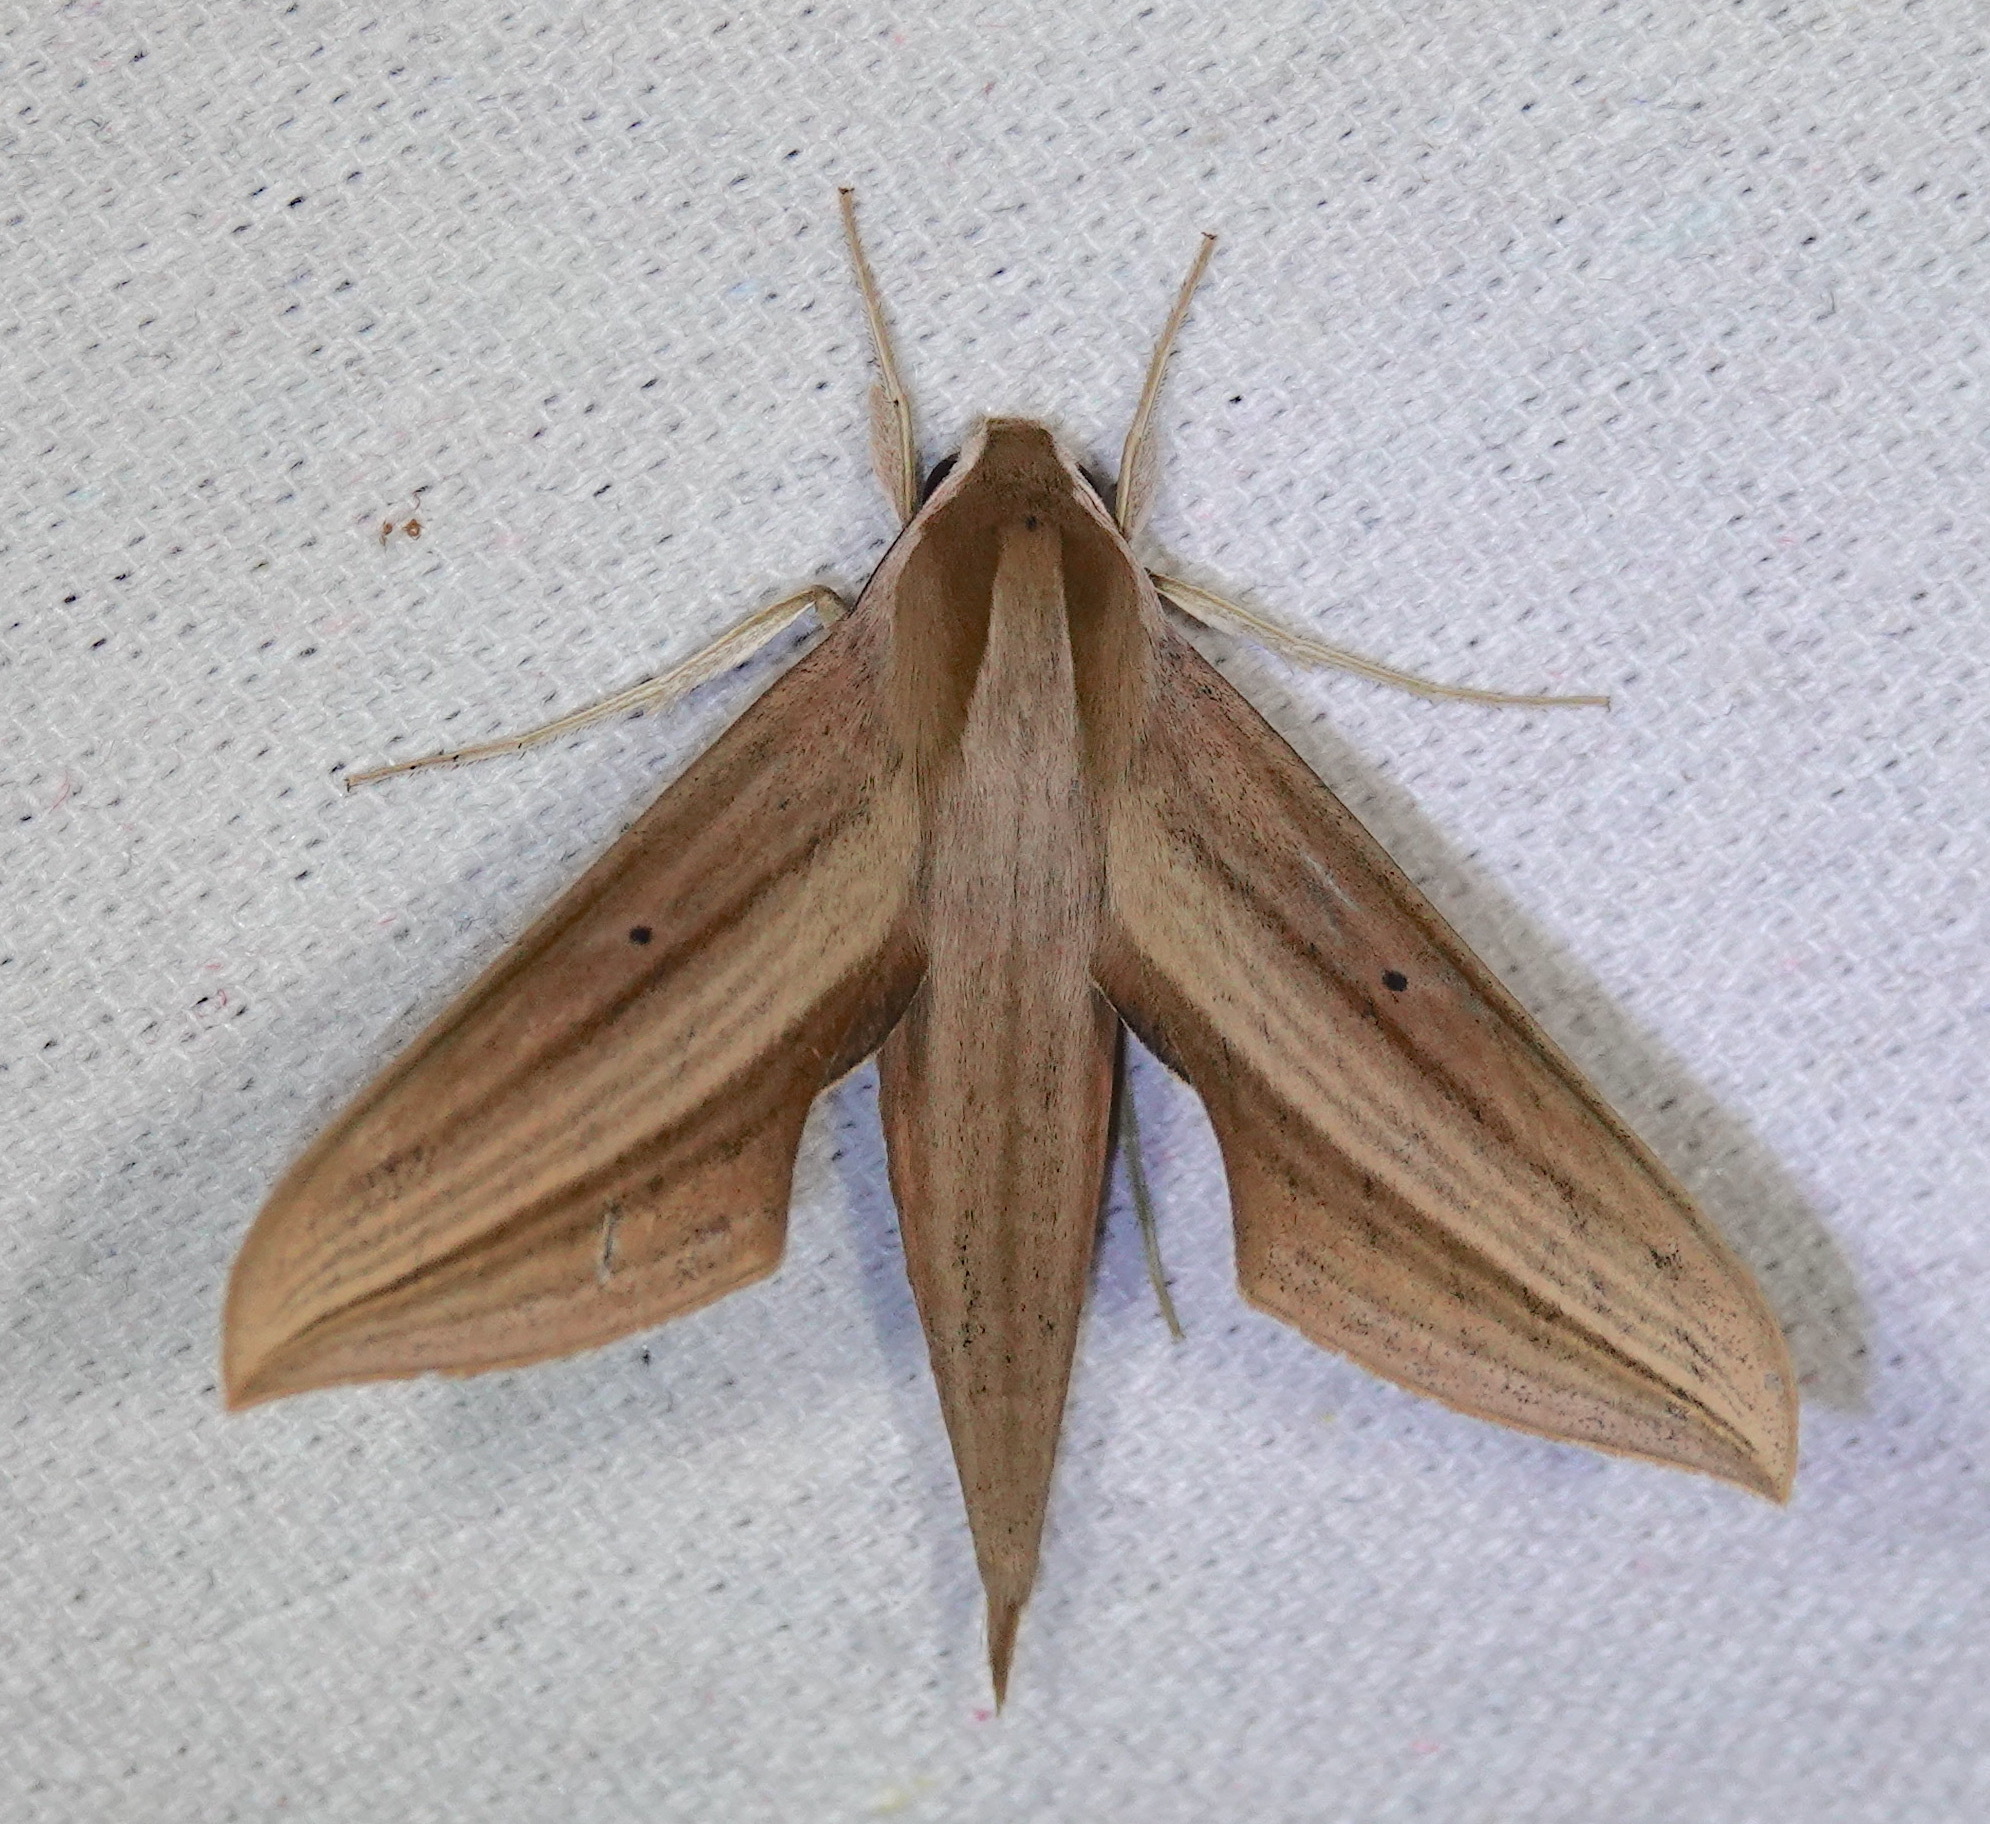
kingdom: Animalia
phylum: Arthropoda
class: Insecta
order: Lepidoptera
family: Sphingidae
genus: Xylophanes
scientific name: Xylophanes neoptolemus
